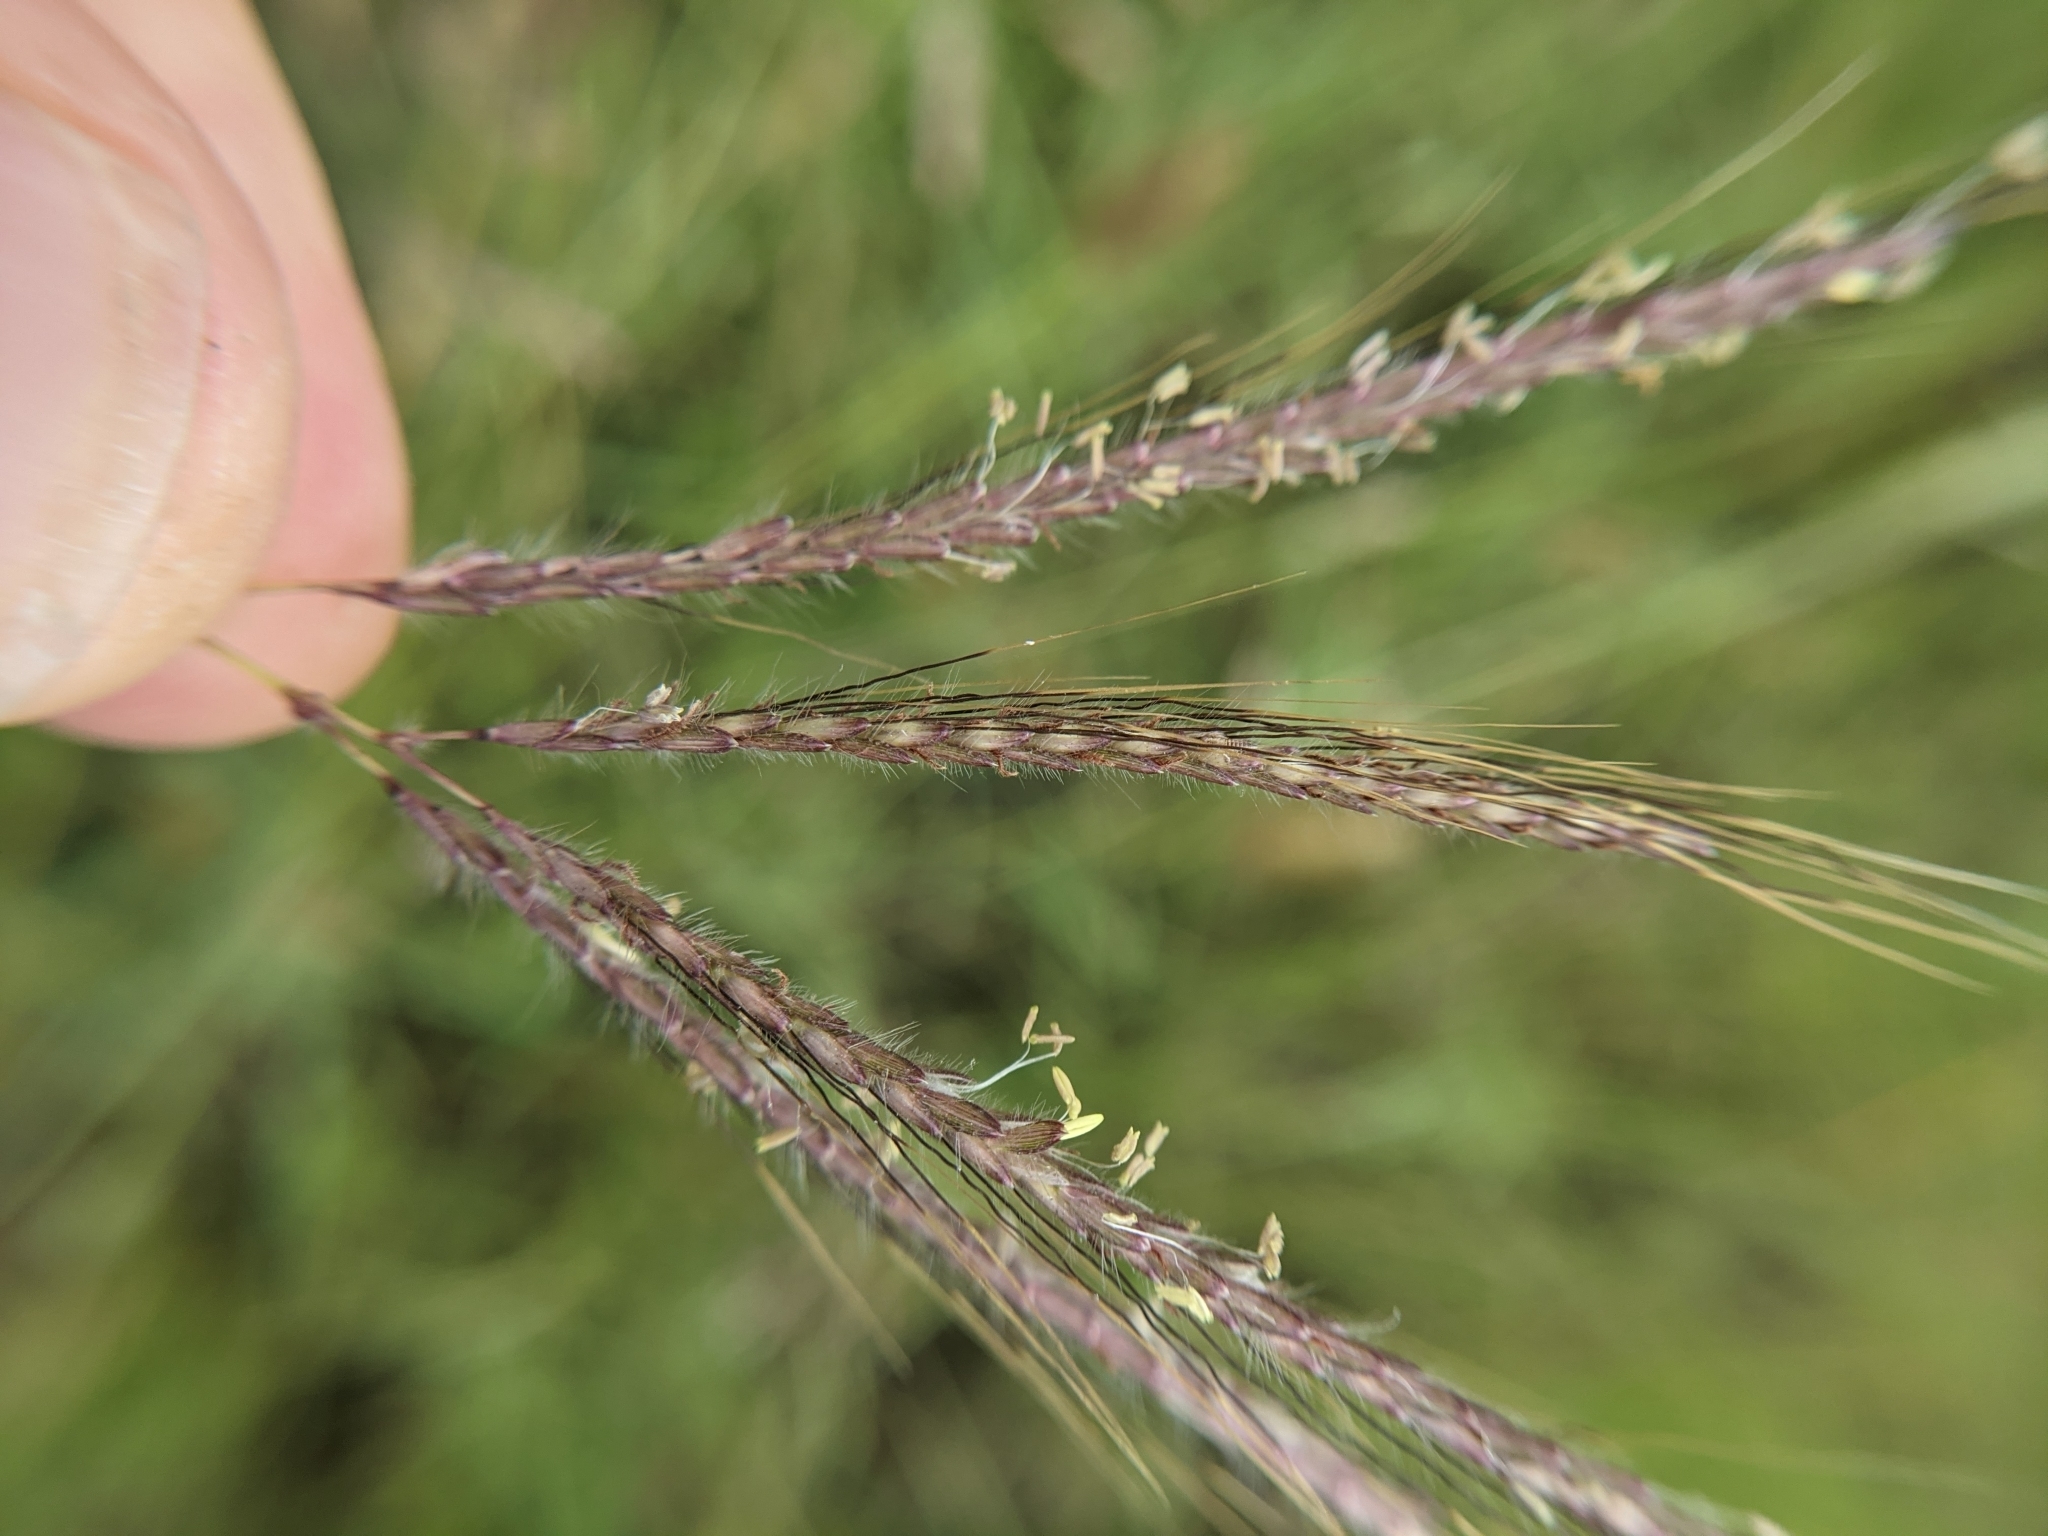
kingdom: Plantae
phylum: Tracheophyta
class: Liliopsida
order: Poales
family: Poaceae
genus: Dichanthium
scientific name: Dichanthium annulatum
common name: Kleberg's bluestem
